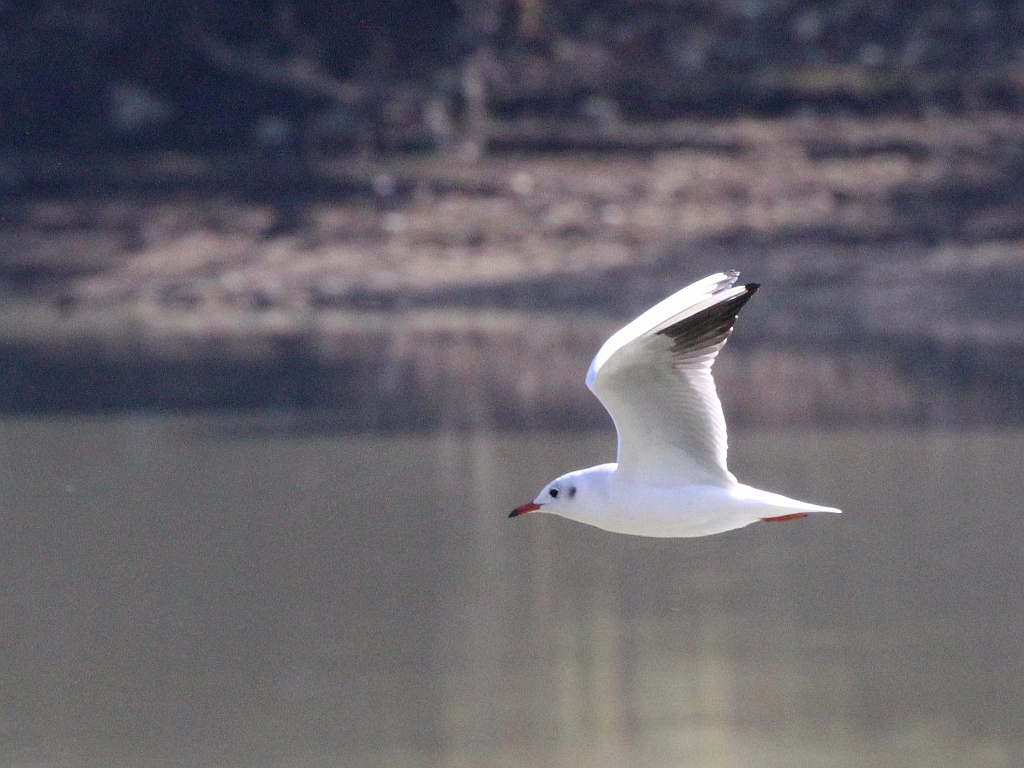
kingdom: Animalia
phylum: Chordata
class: Aves
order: Charadriiformes
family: Laridae
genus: Chroicocephalus
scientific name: Chroicocephalus ridibundus
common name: Black-headed gull
